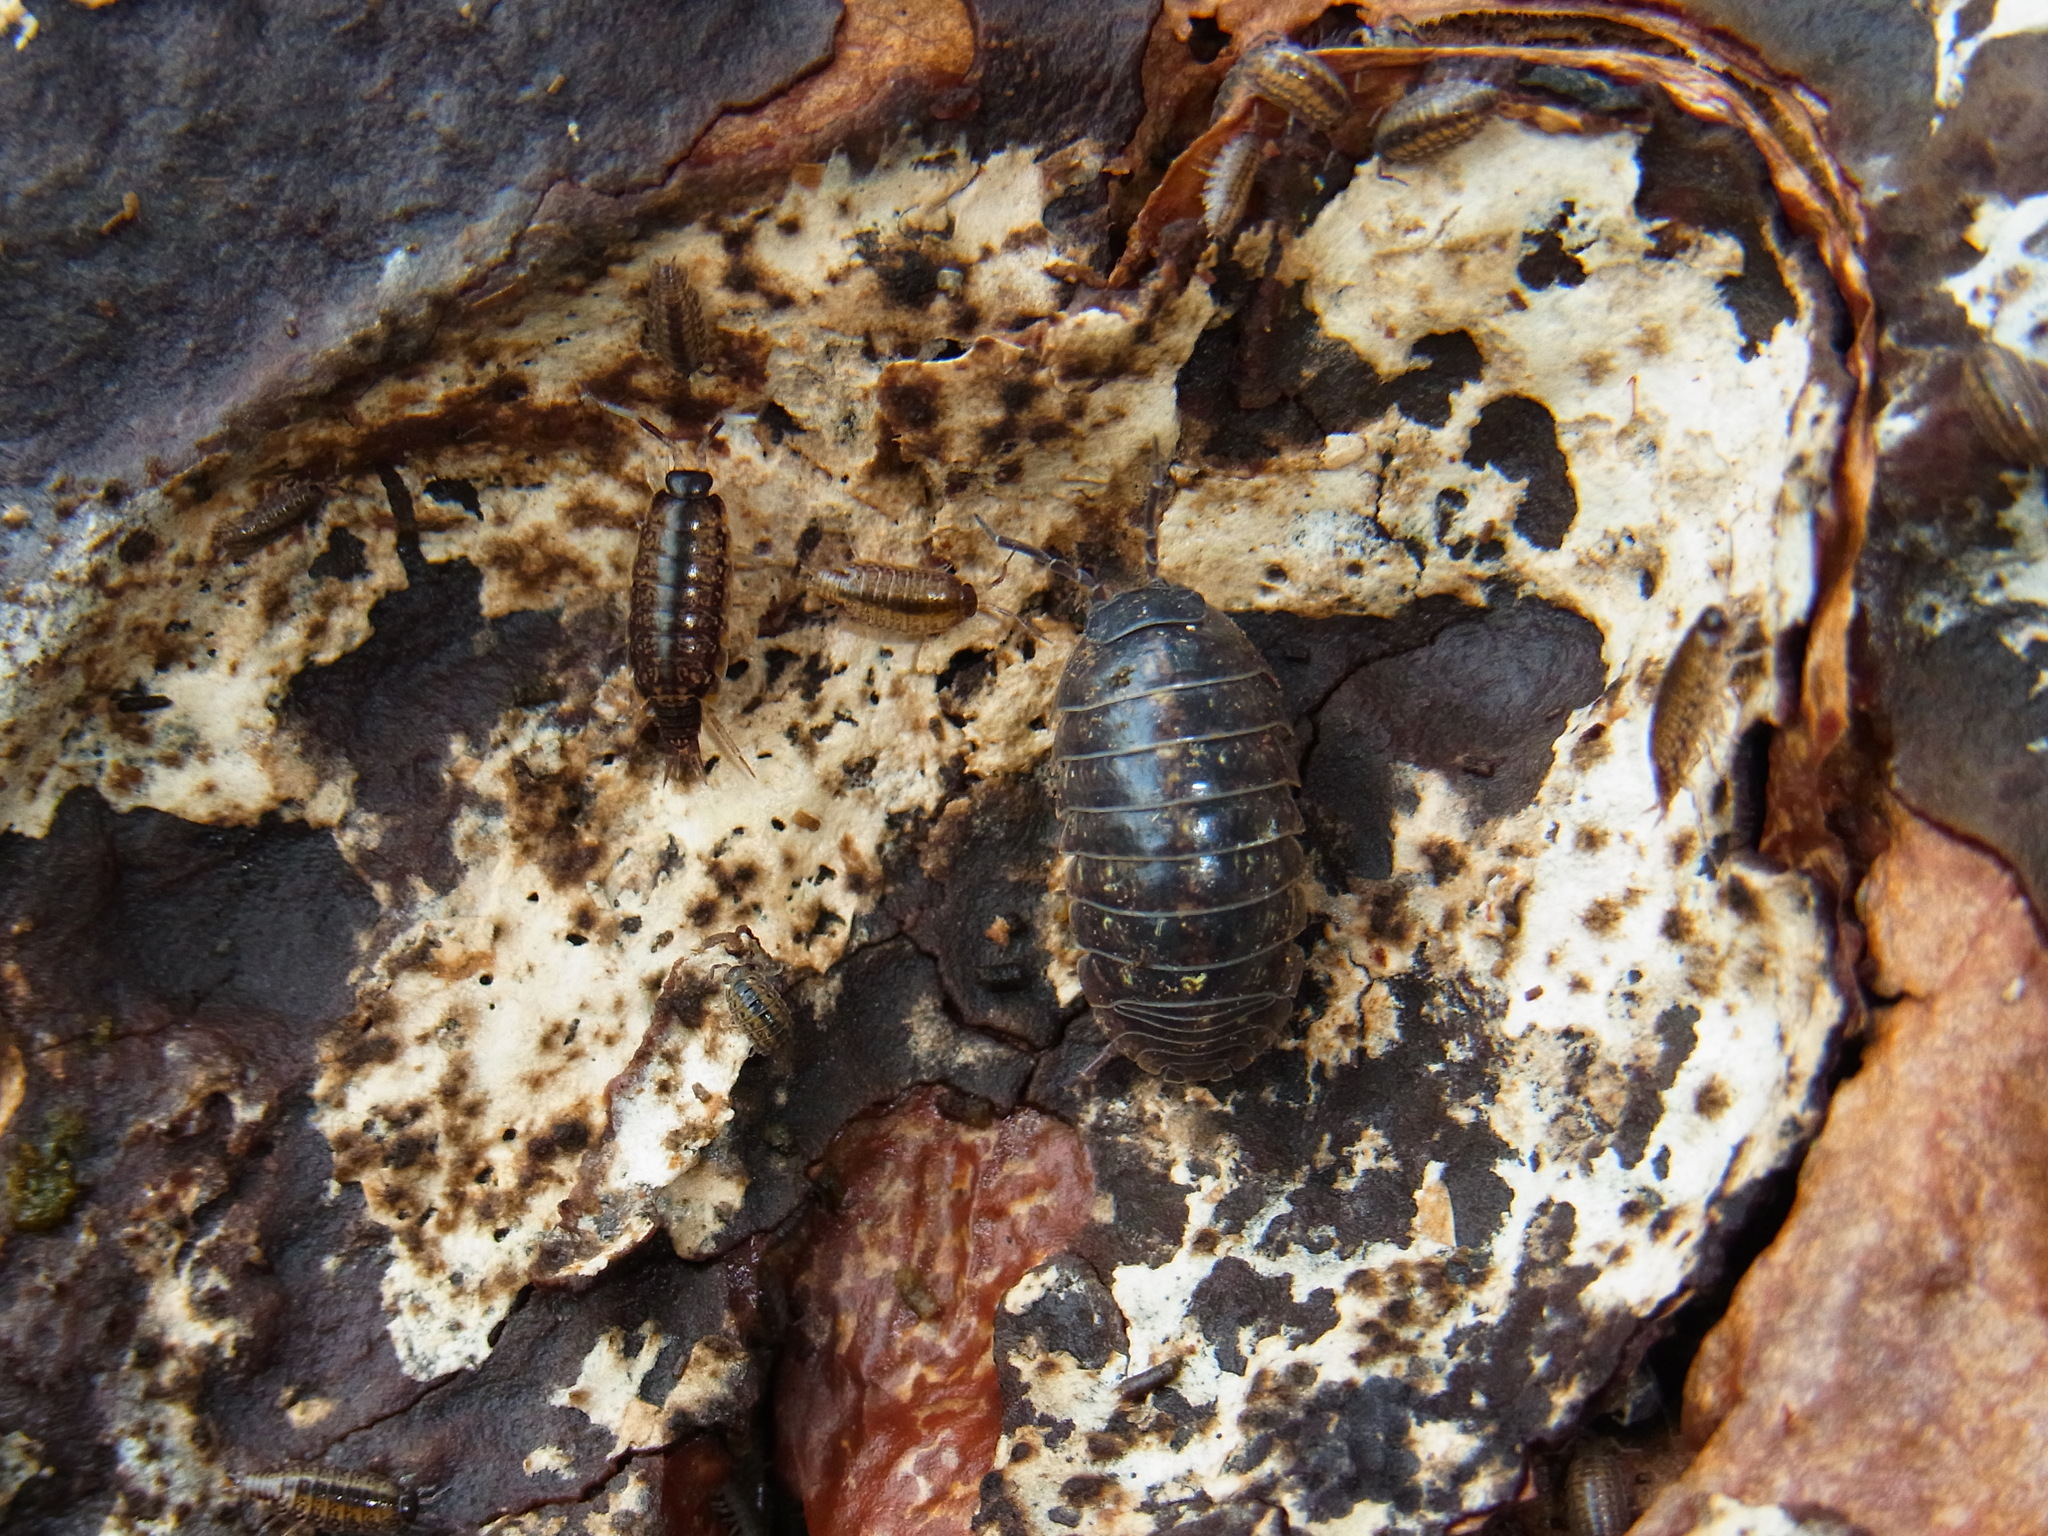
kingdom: Animalia
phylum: Arthropoda
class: Malacostraca
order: Isopoda
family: Armadillidiidae
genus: Armadillidium
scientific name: Armadillidium vulgare
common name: Common pill woodlouse
